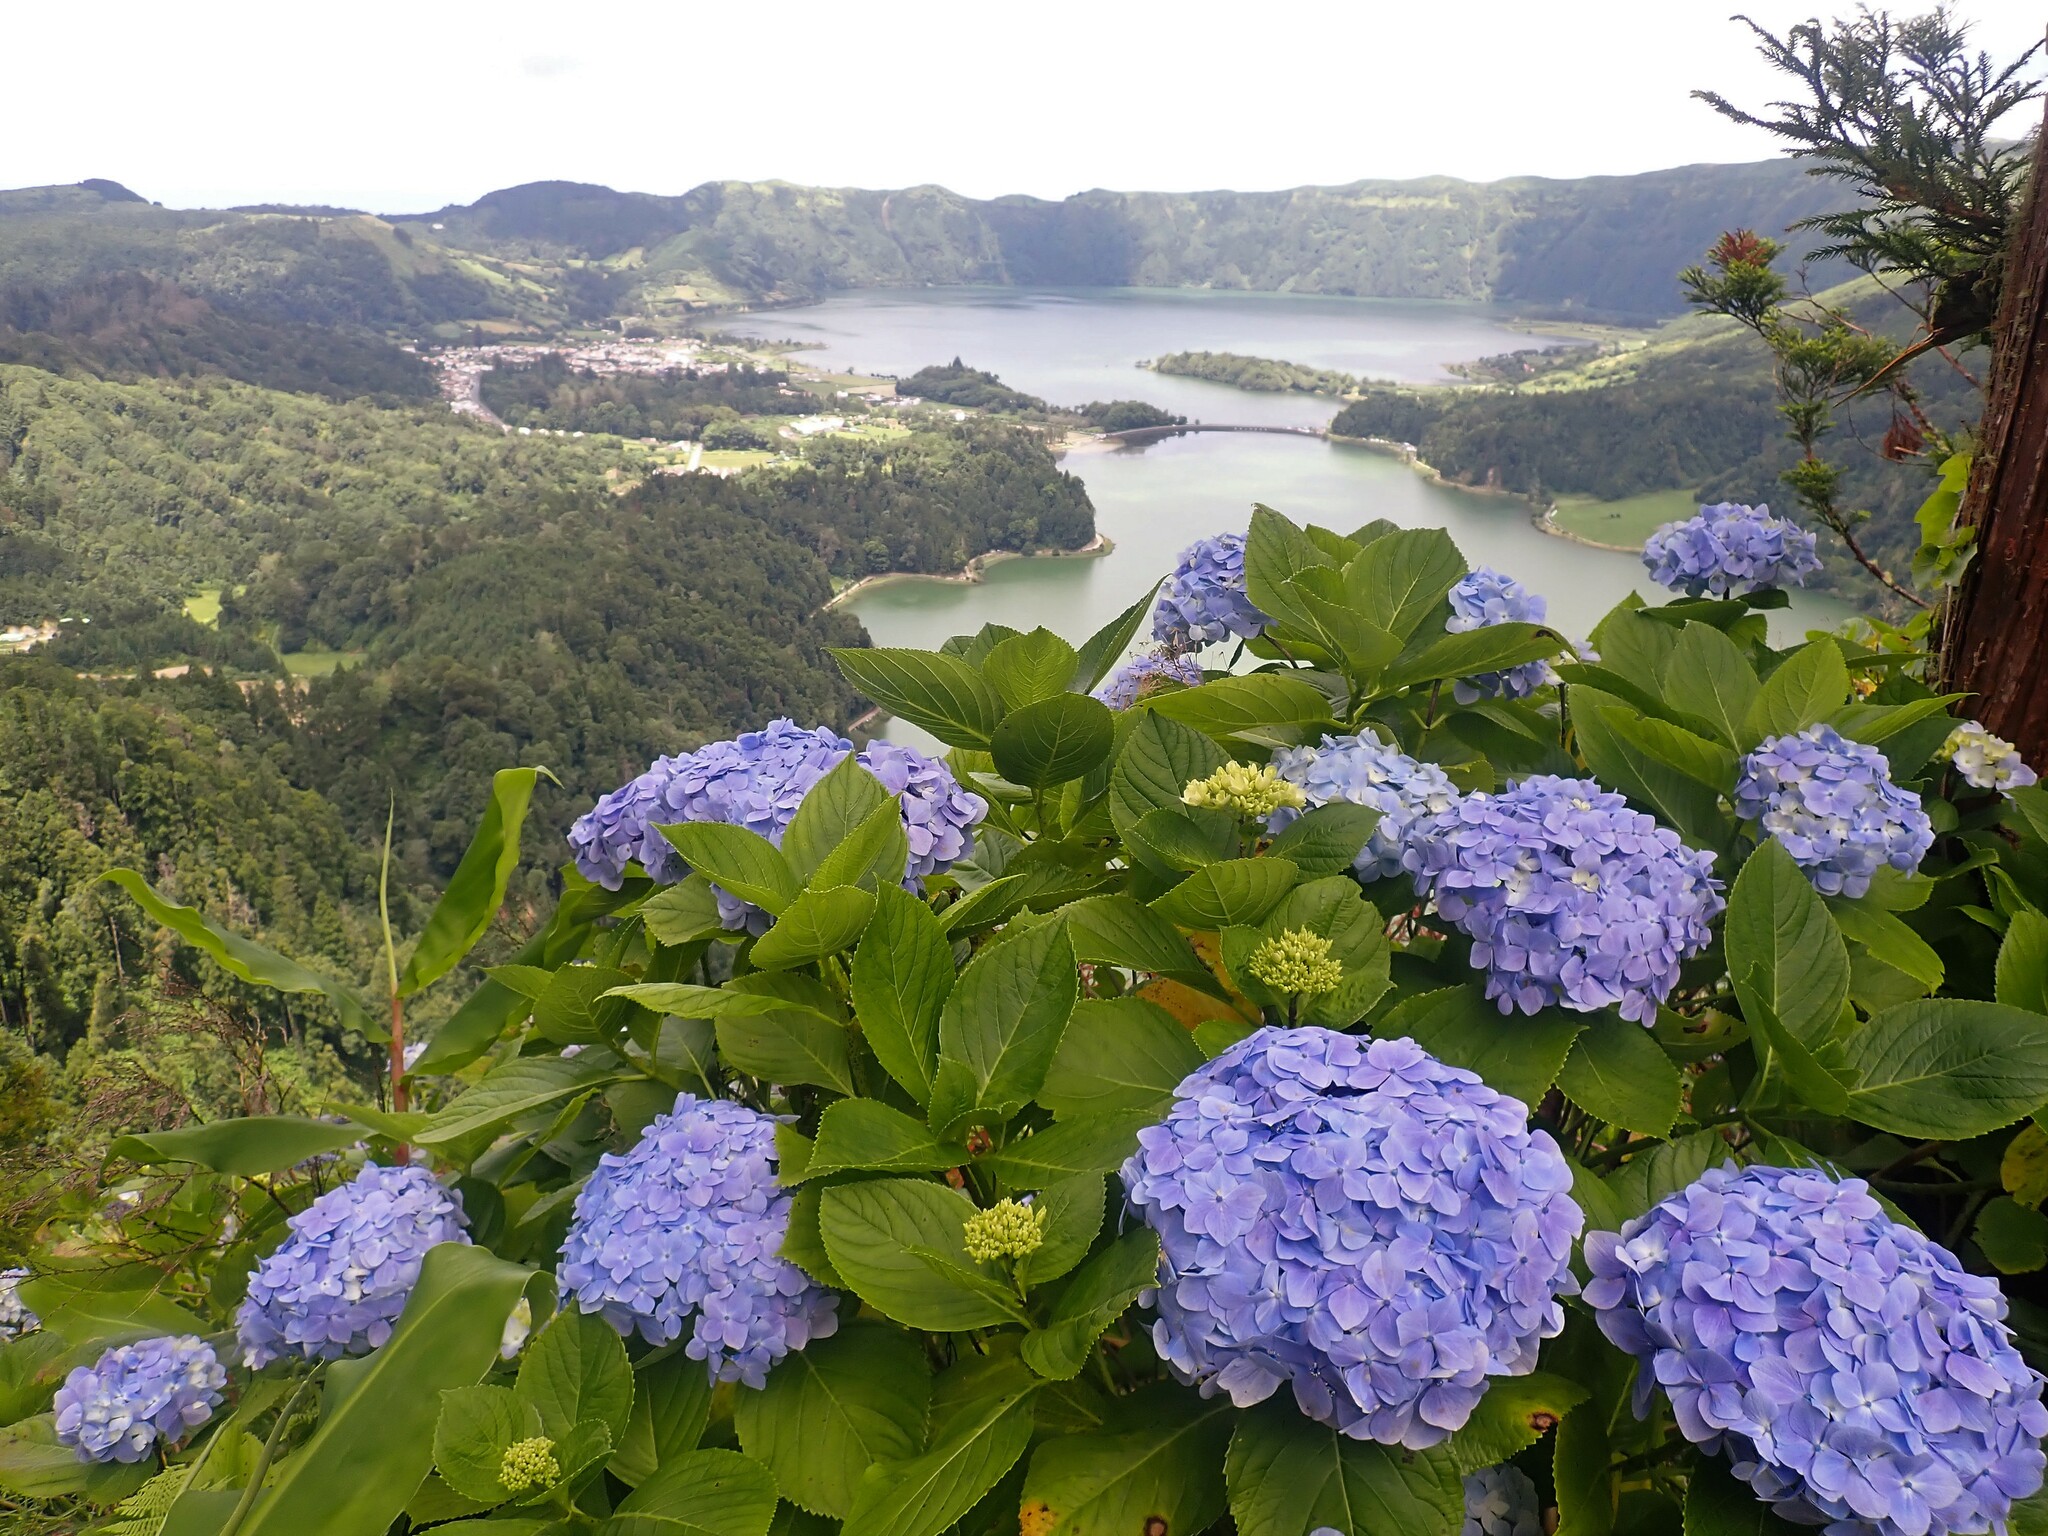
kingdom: Plantae
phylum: Tracheophyta
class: Magnoliopsida
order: Cornales
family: Hydrangeaceae
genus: Hydrangea
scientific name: Hydrangea macrophylla
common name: Hydrangea
